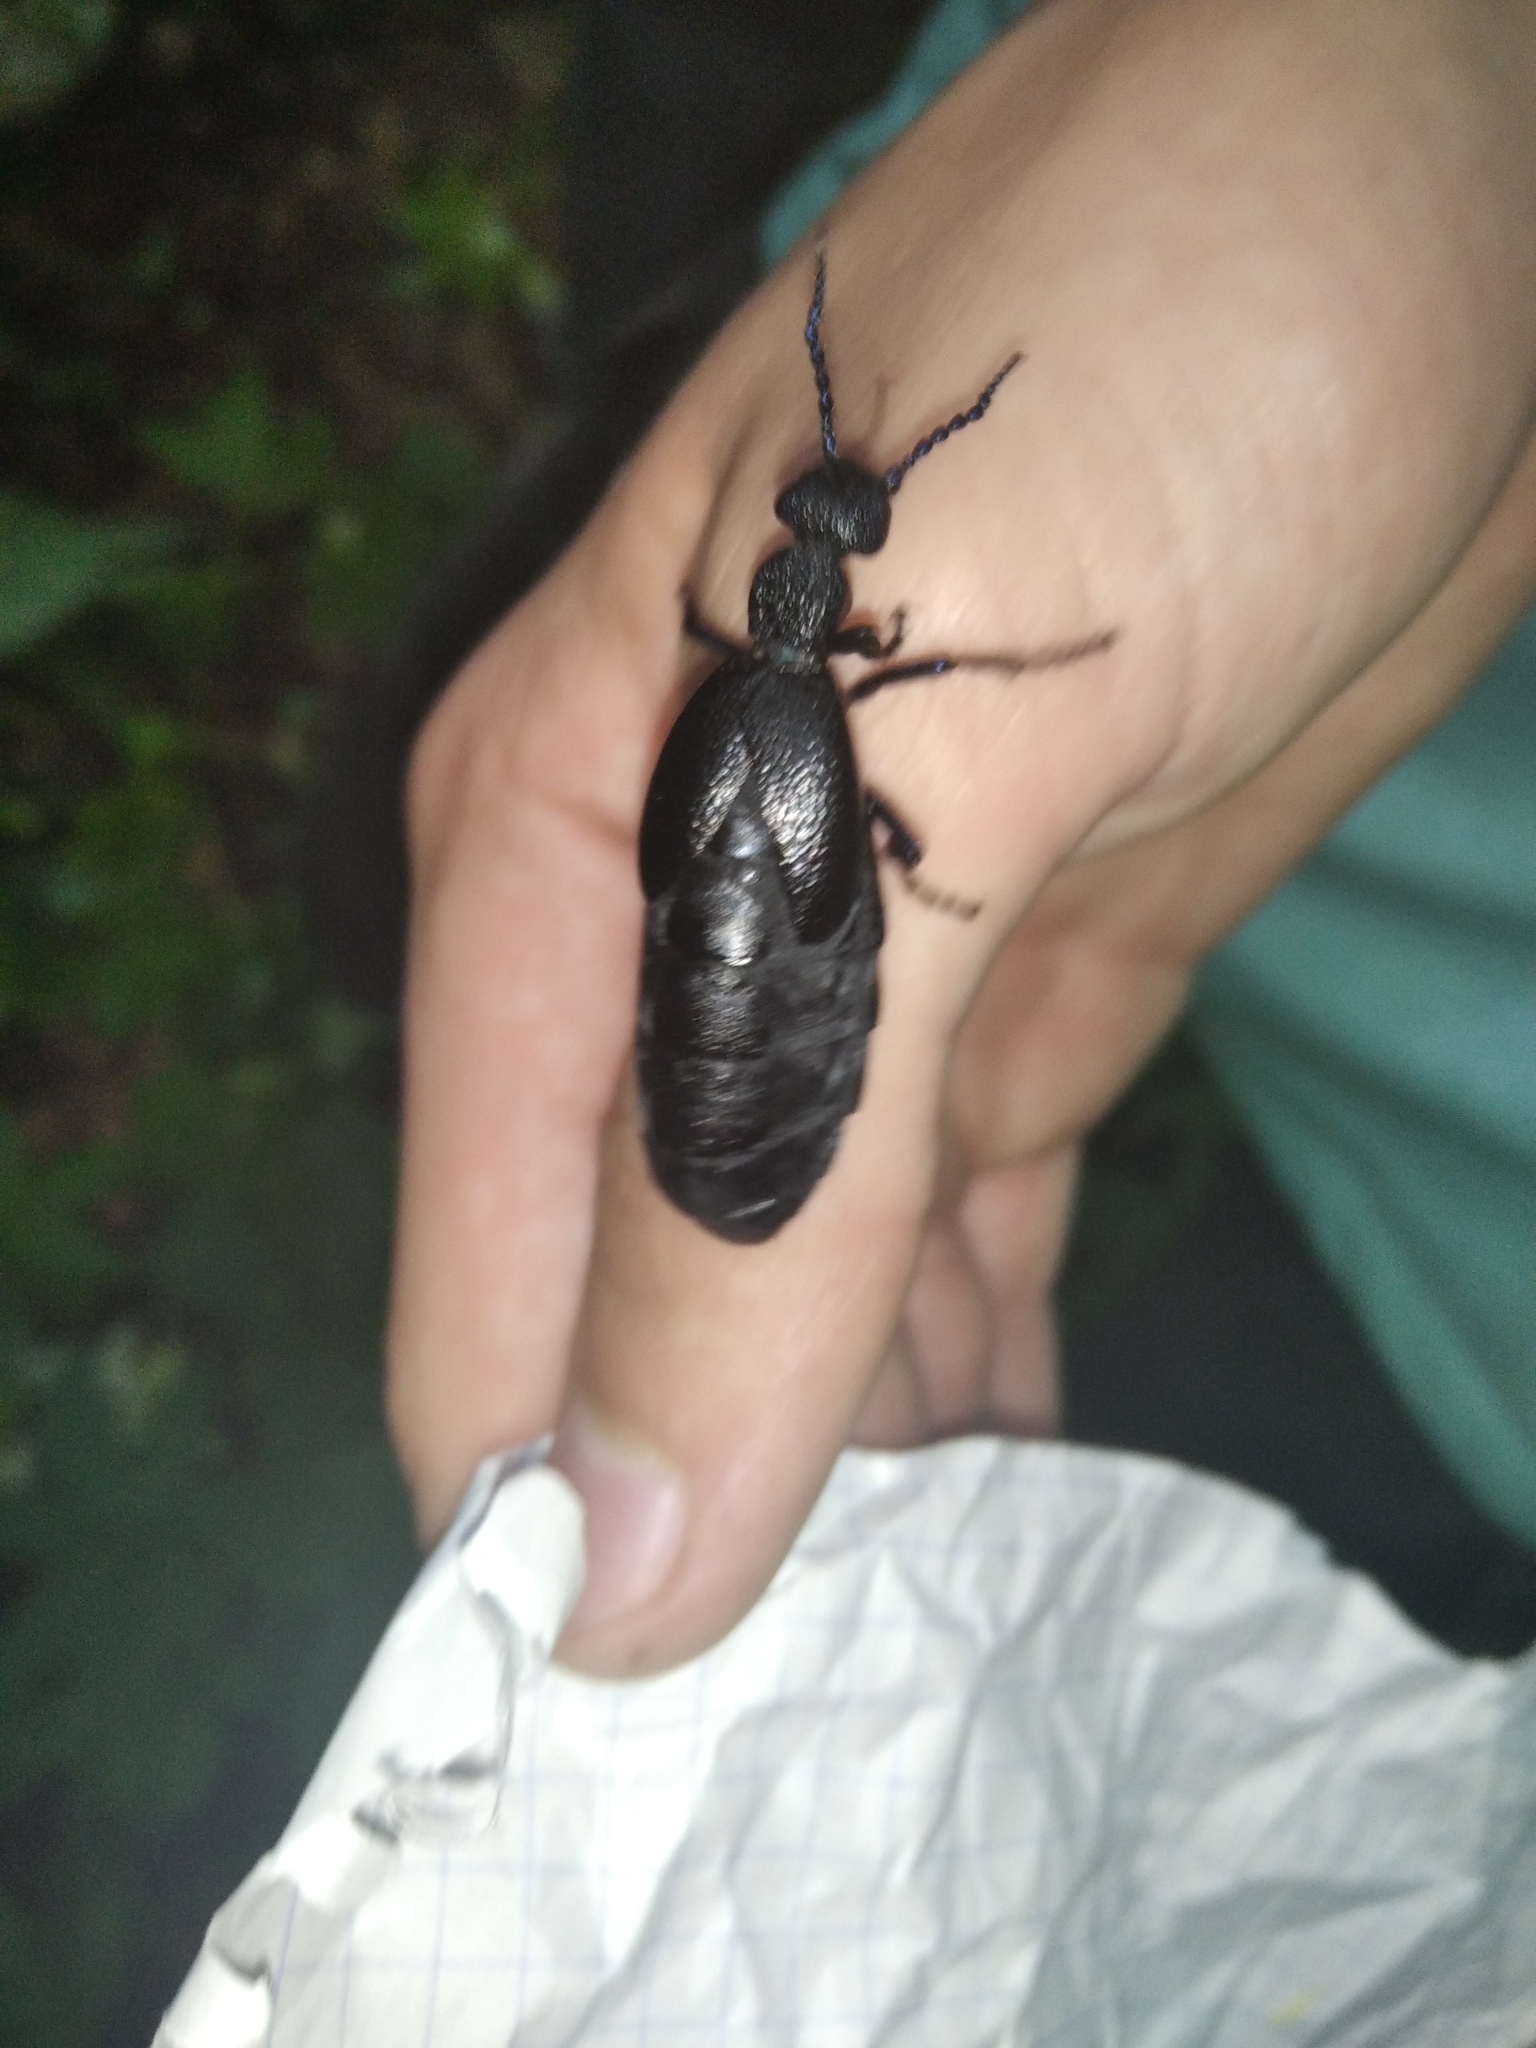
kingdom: Animalia
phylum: Arthropoda
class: Insecta
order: Coleoptera
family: Meloidae
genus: Meloe
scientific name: Meloe proscarabaeus
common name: Black oil-beetle
